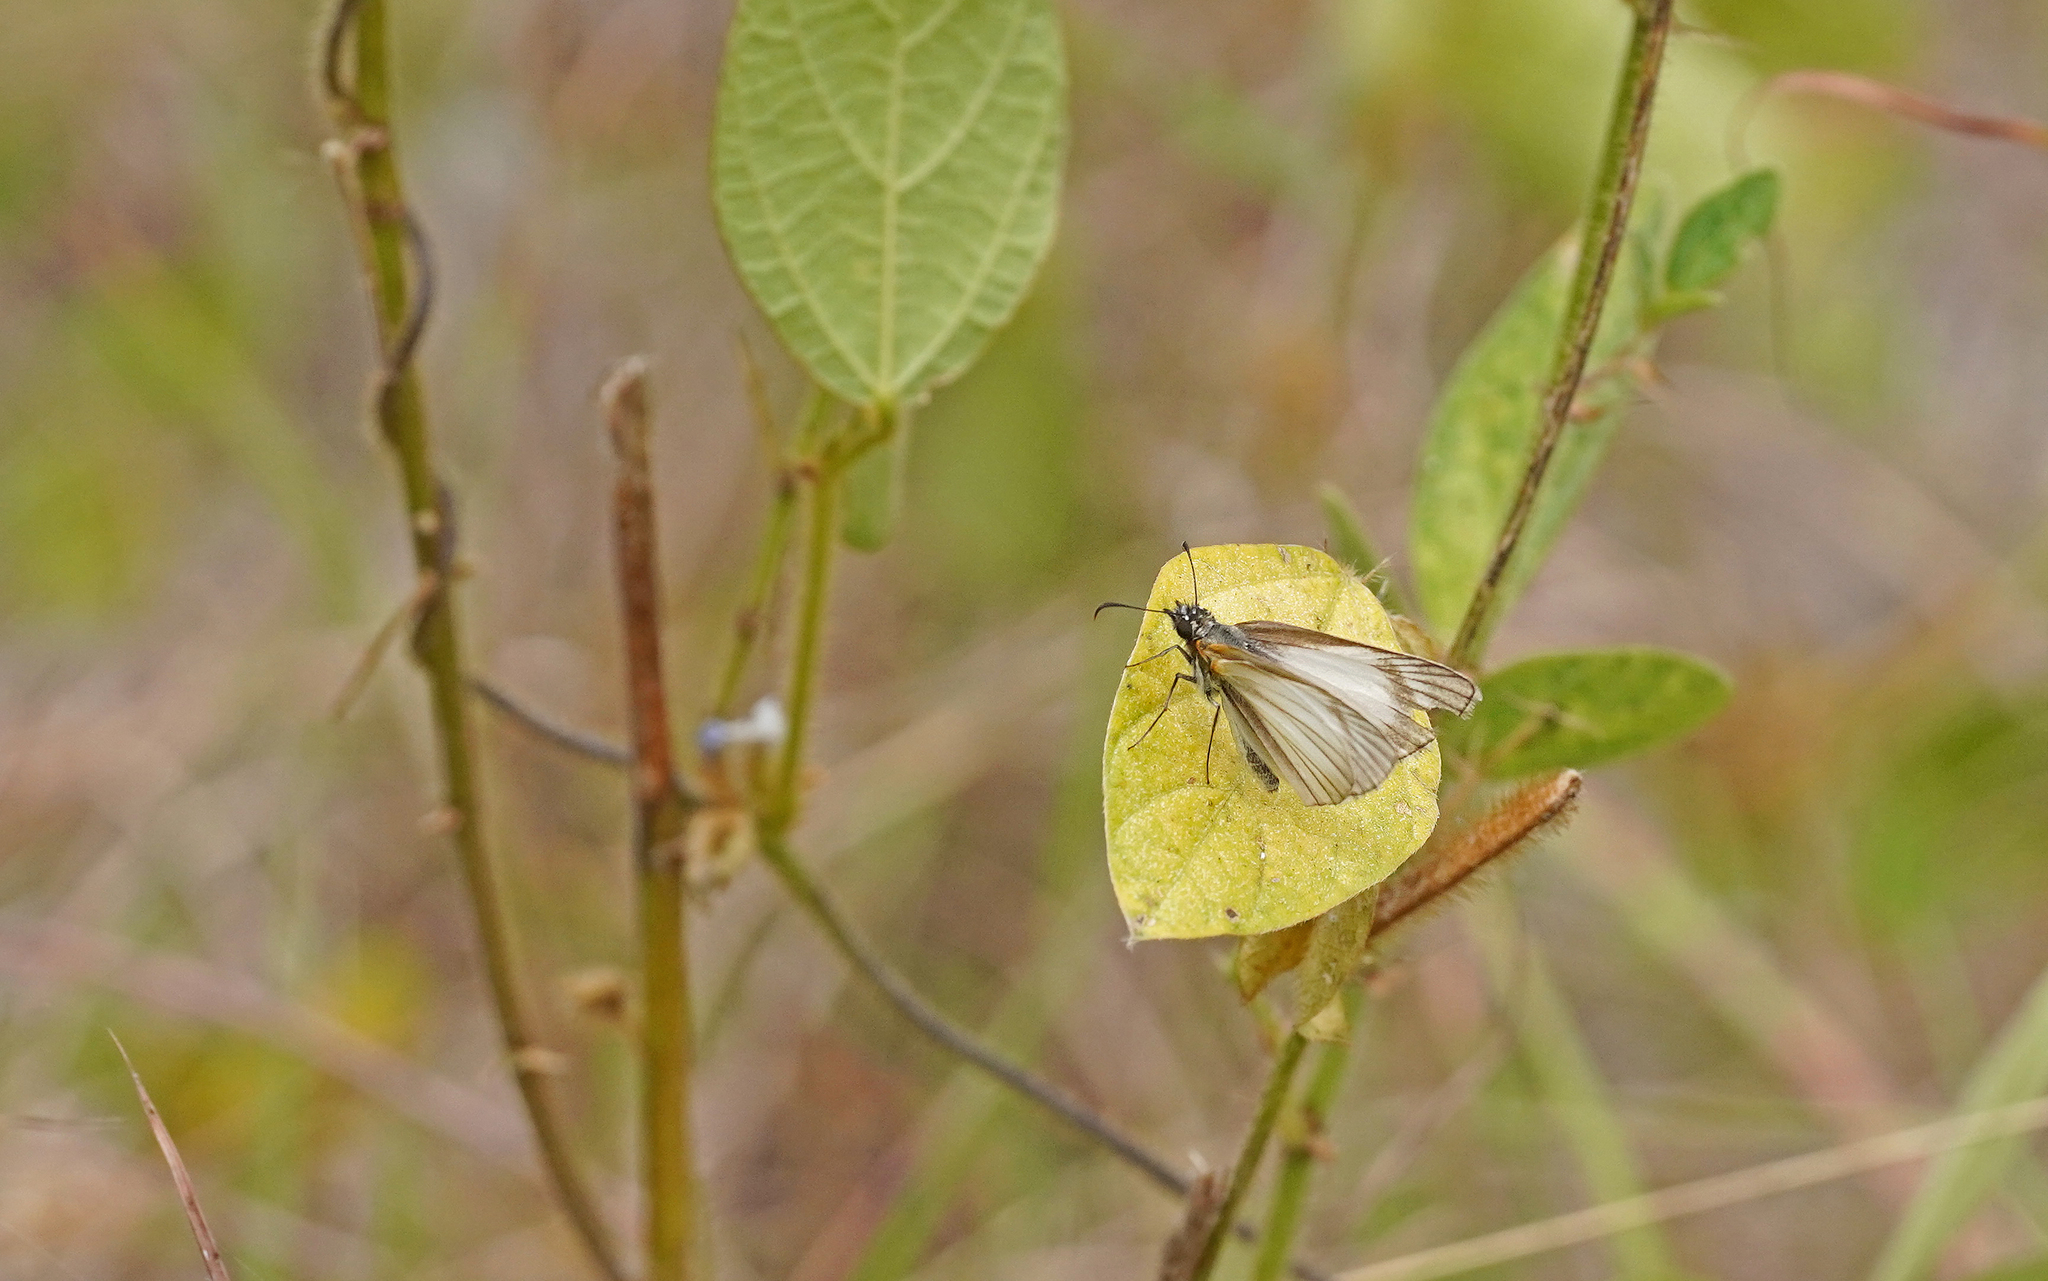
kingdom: Animalia
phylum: Arthropoda
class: Insecta
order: Lepidoptera
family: Hesperiidae
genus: Heliopetes
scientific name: Heliopetes arsalte
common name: Veined white-skipper
